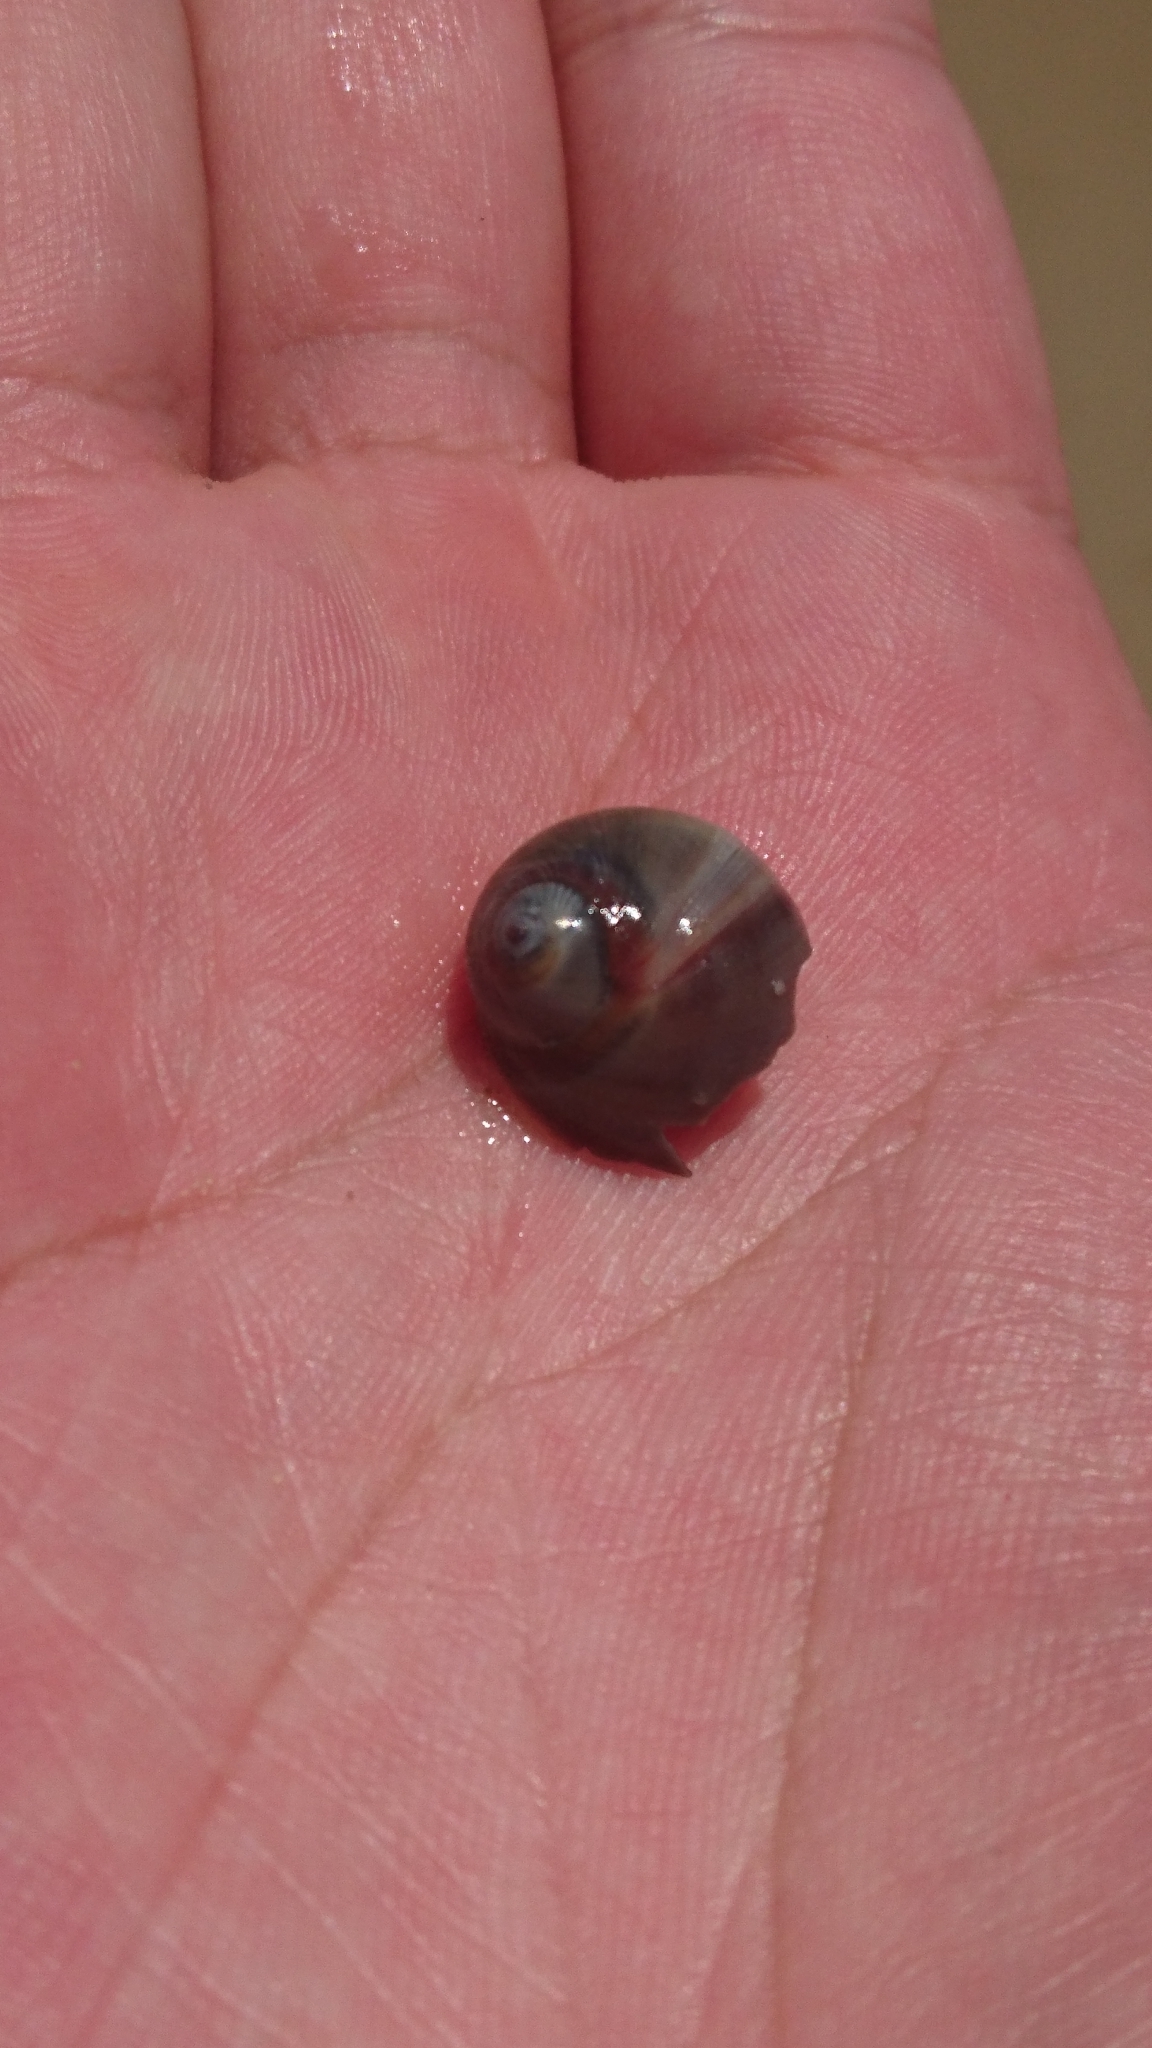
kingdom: Animalia
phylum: Mollusca
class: Gastropoda
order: Littorinimorpha
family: Naticidae
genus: Conuber
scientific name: Conuber sordidum
